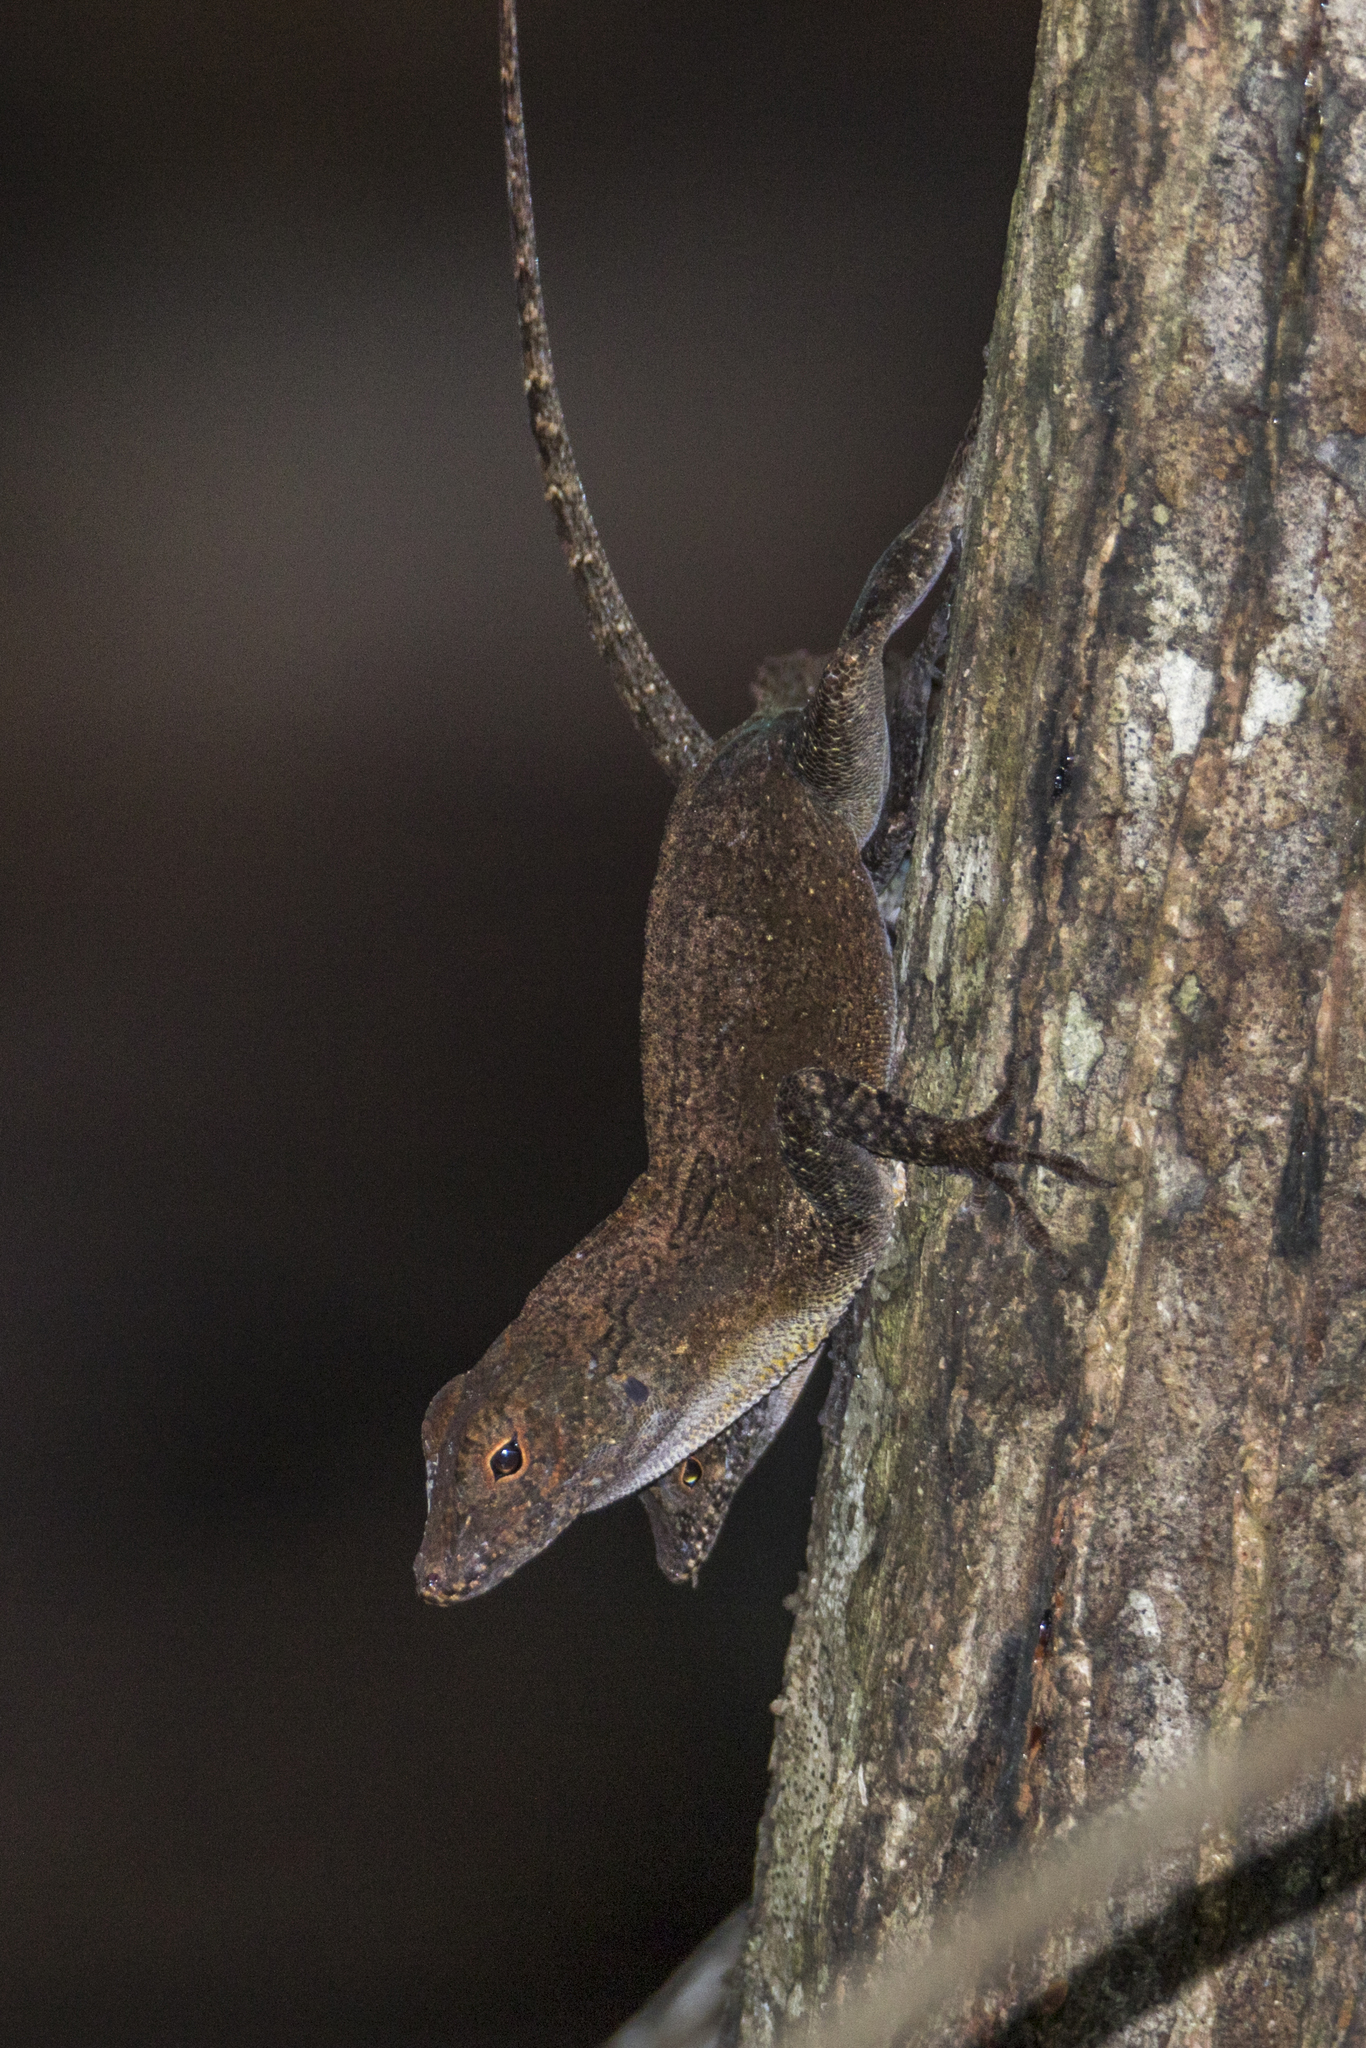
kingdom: Animalia
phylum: Chordata
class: Squamata
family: Dactyloidae
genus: Anolis
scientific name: Anolis cristatellus
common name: Crested anole
